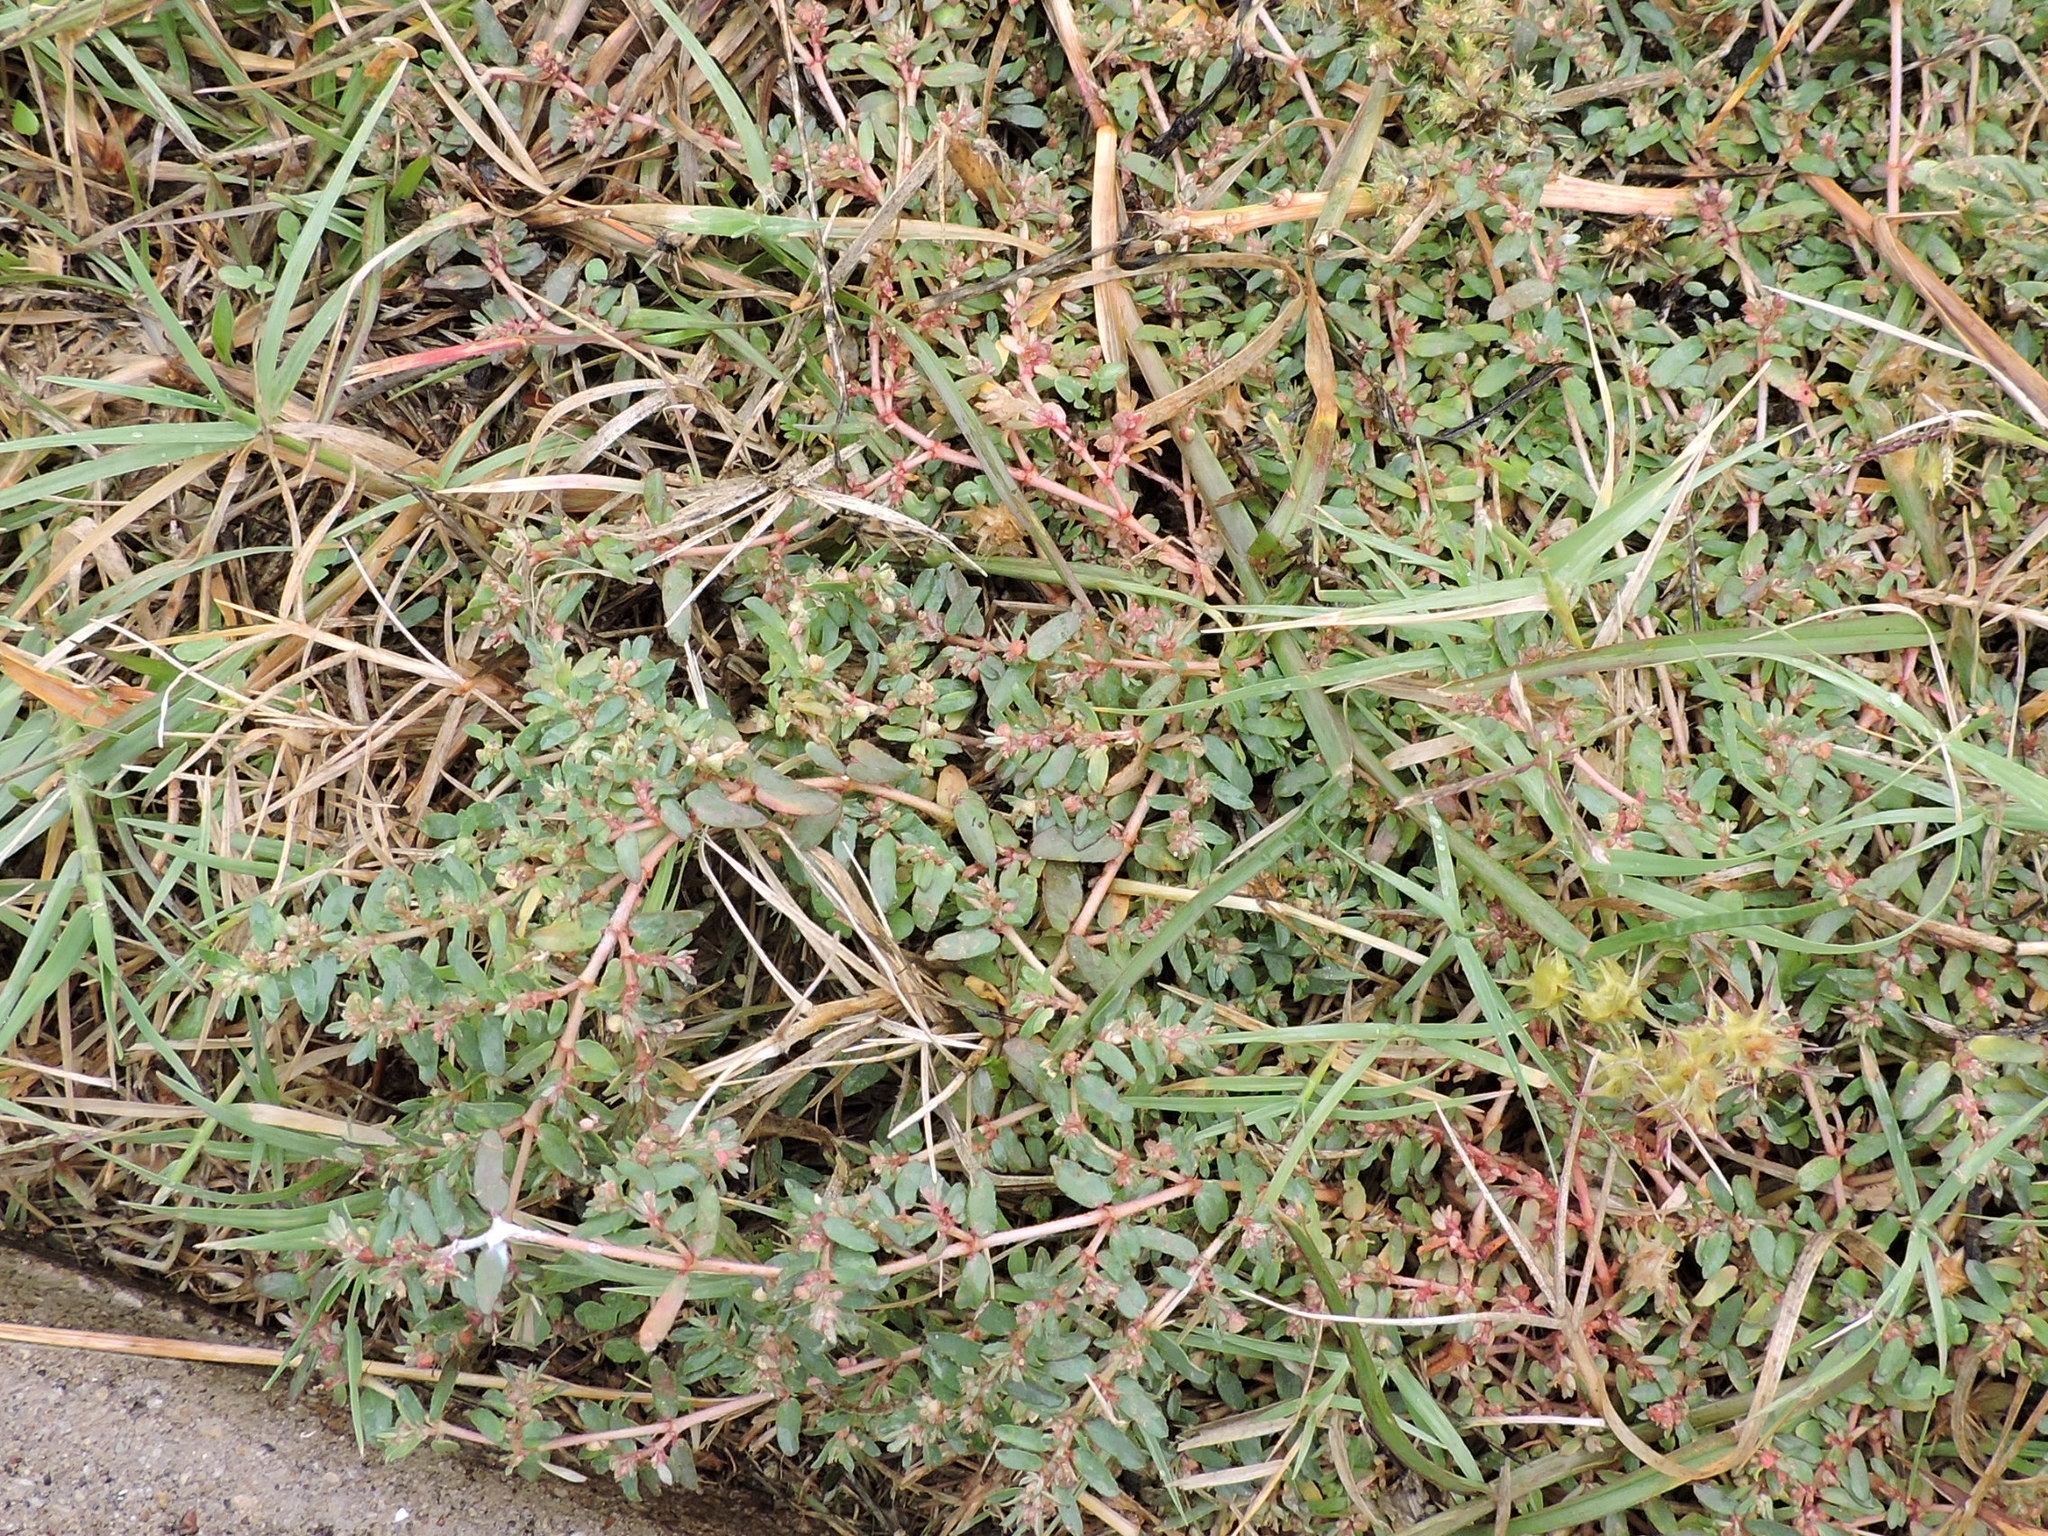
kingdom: Plantae
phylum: Tracheophyta
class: Magnoliopsida
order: Malpighiales
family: Euphorbiaceae
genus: Euphorbia
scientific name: Euphorbia maculata
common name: Spotted spurge
